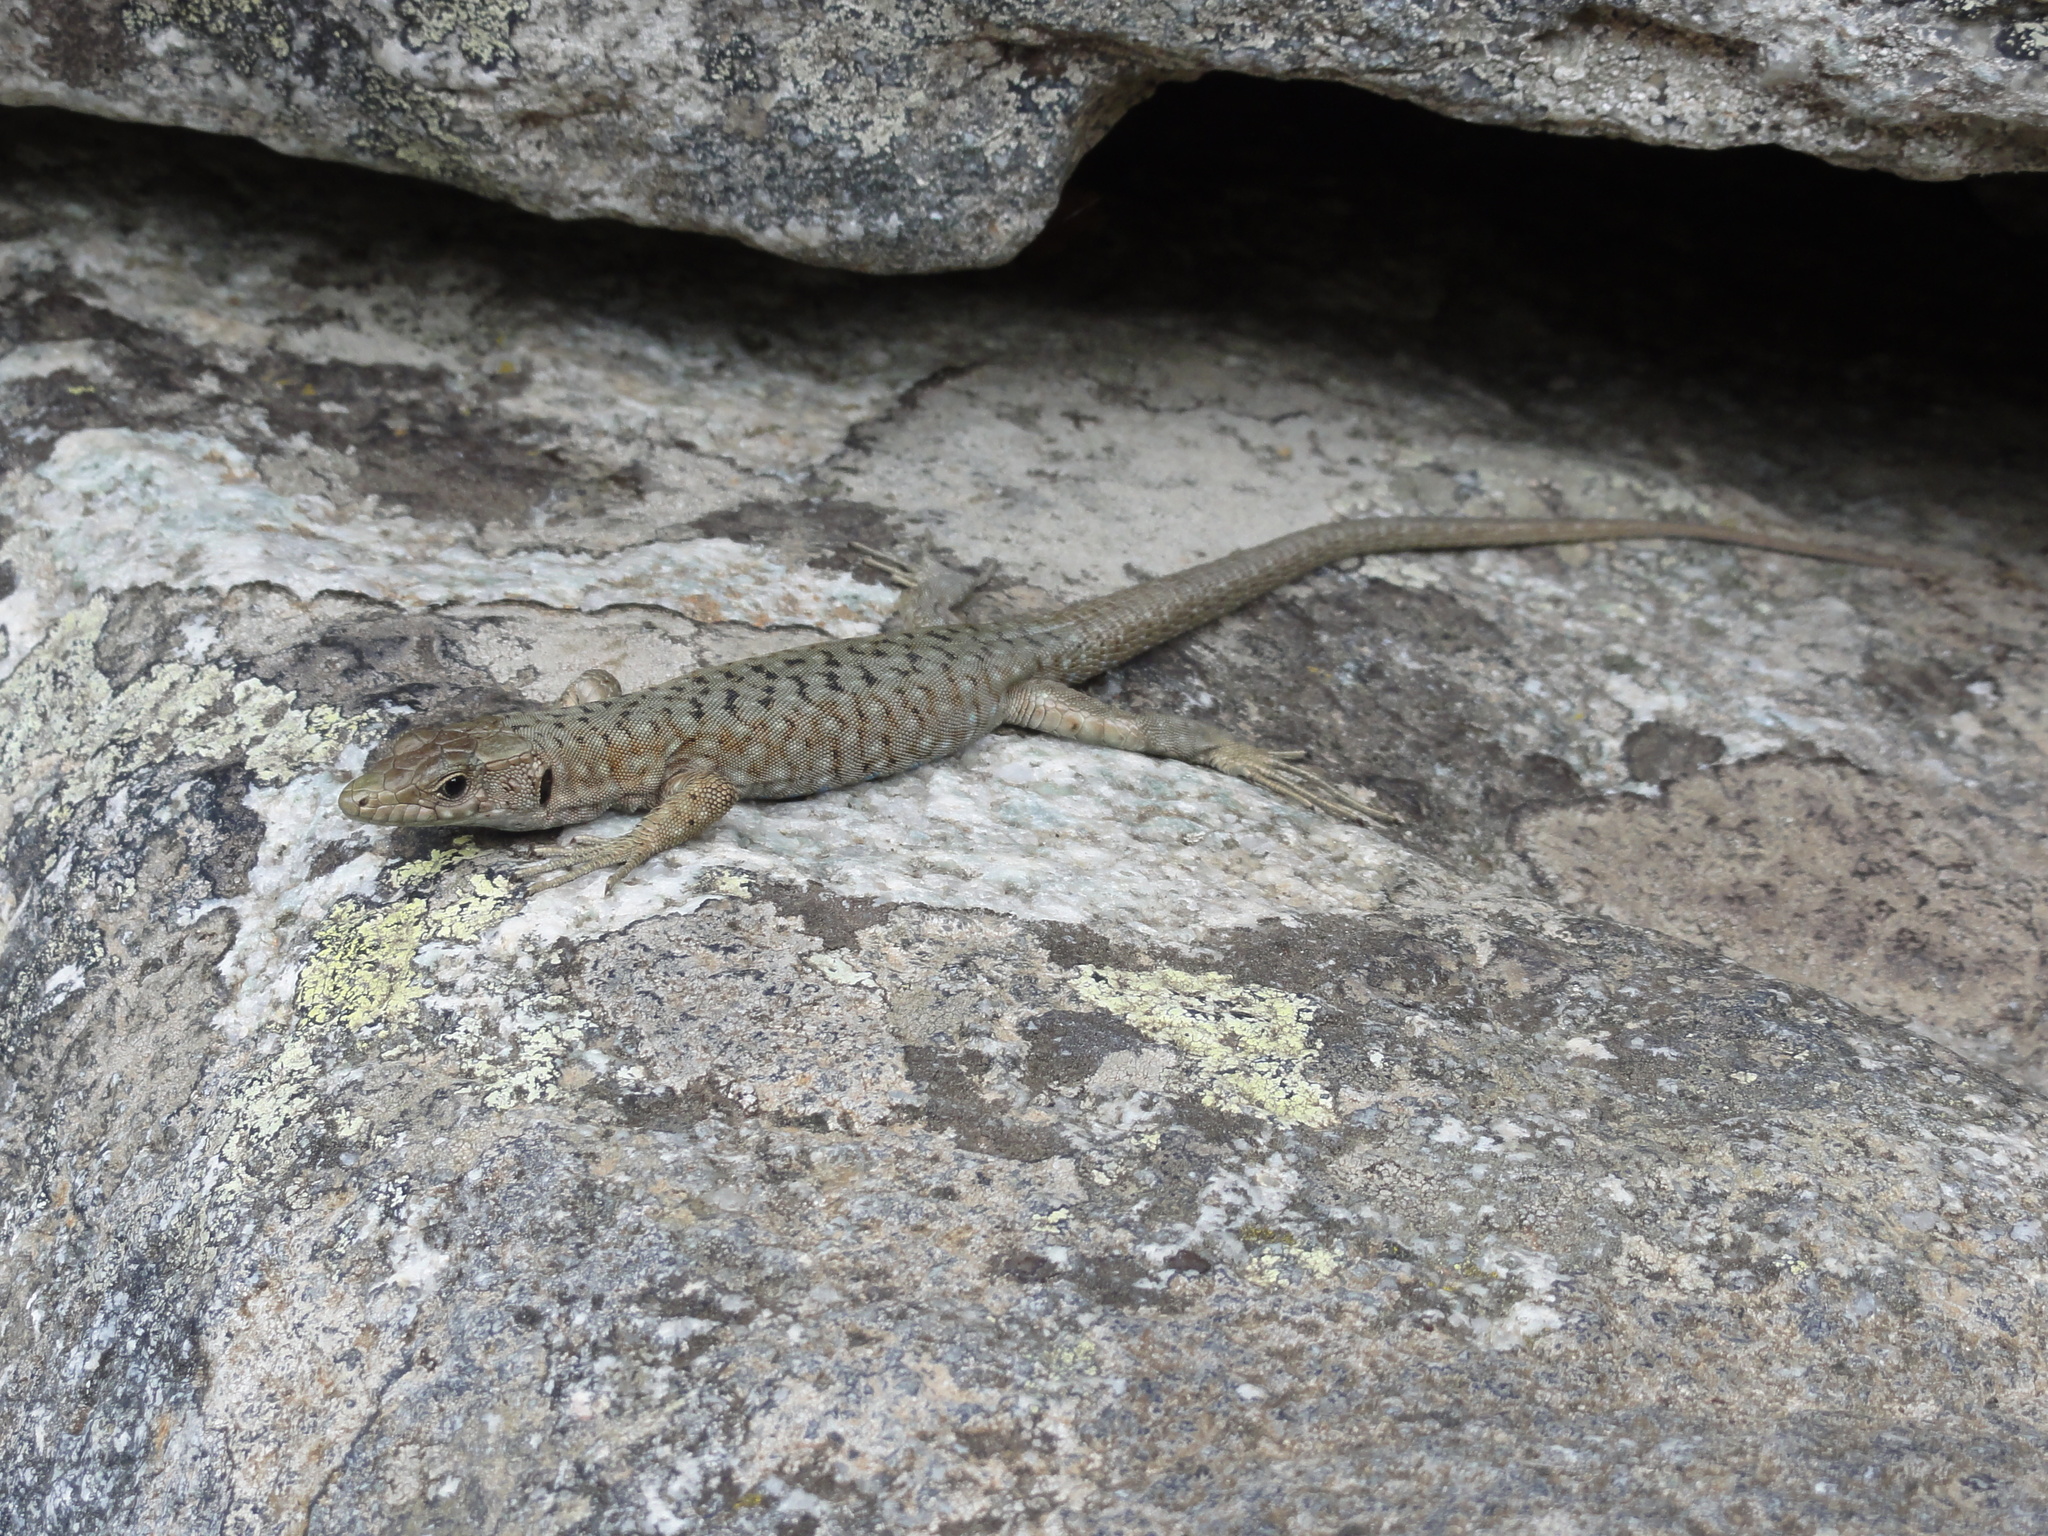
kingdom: Animalia
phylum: Chordata
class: Squamata
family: Lacertidae
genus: Archaeolacerta
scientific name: Archaeolacerta bedriagae
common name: Bedriaga's rock lizard
